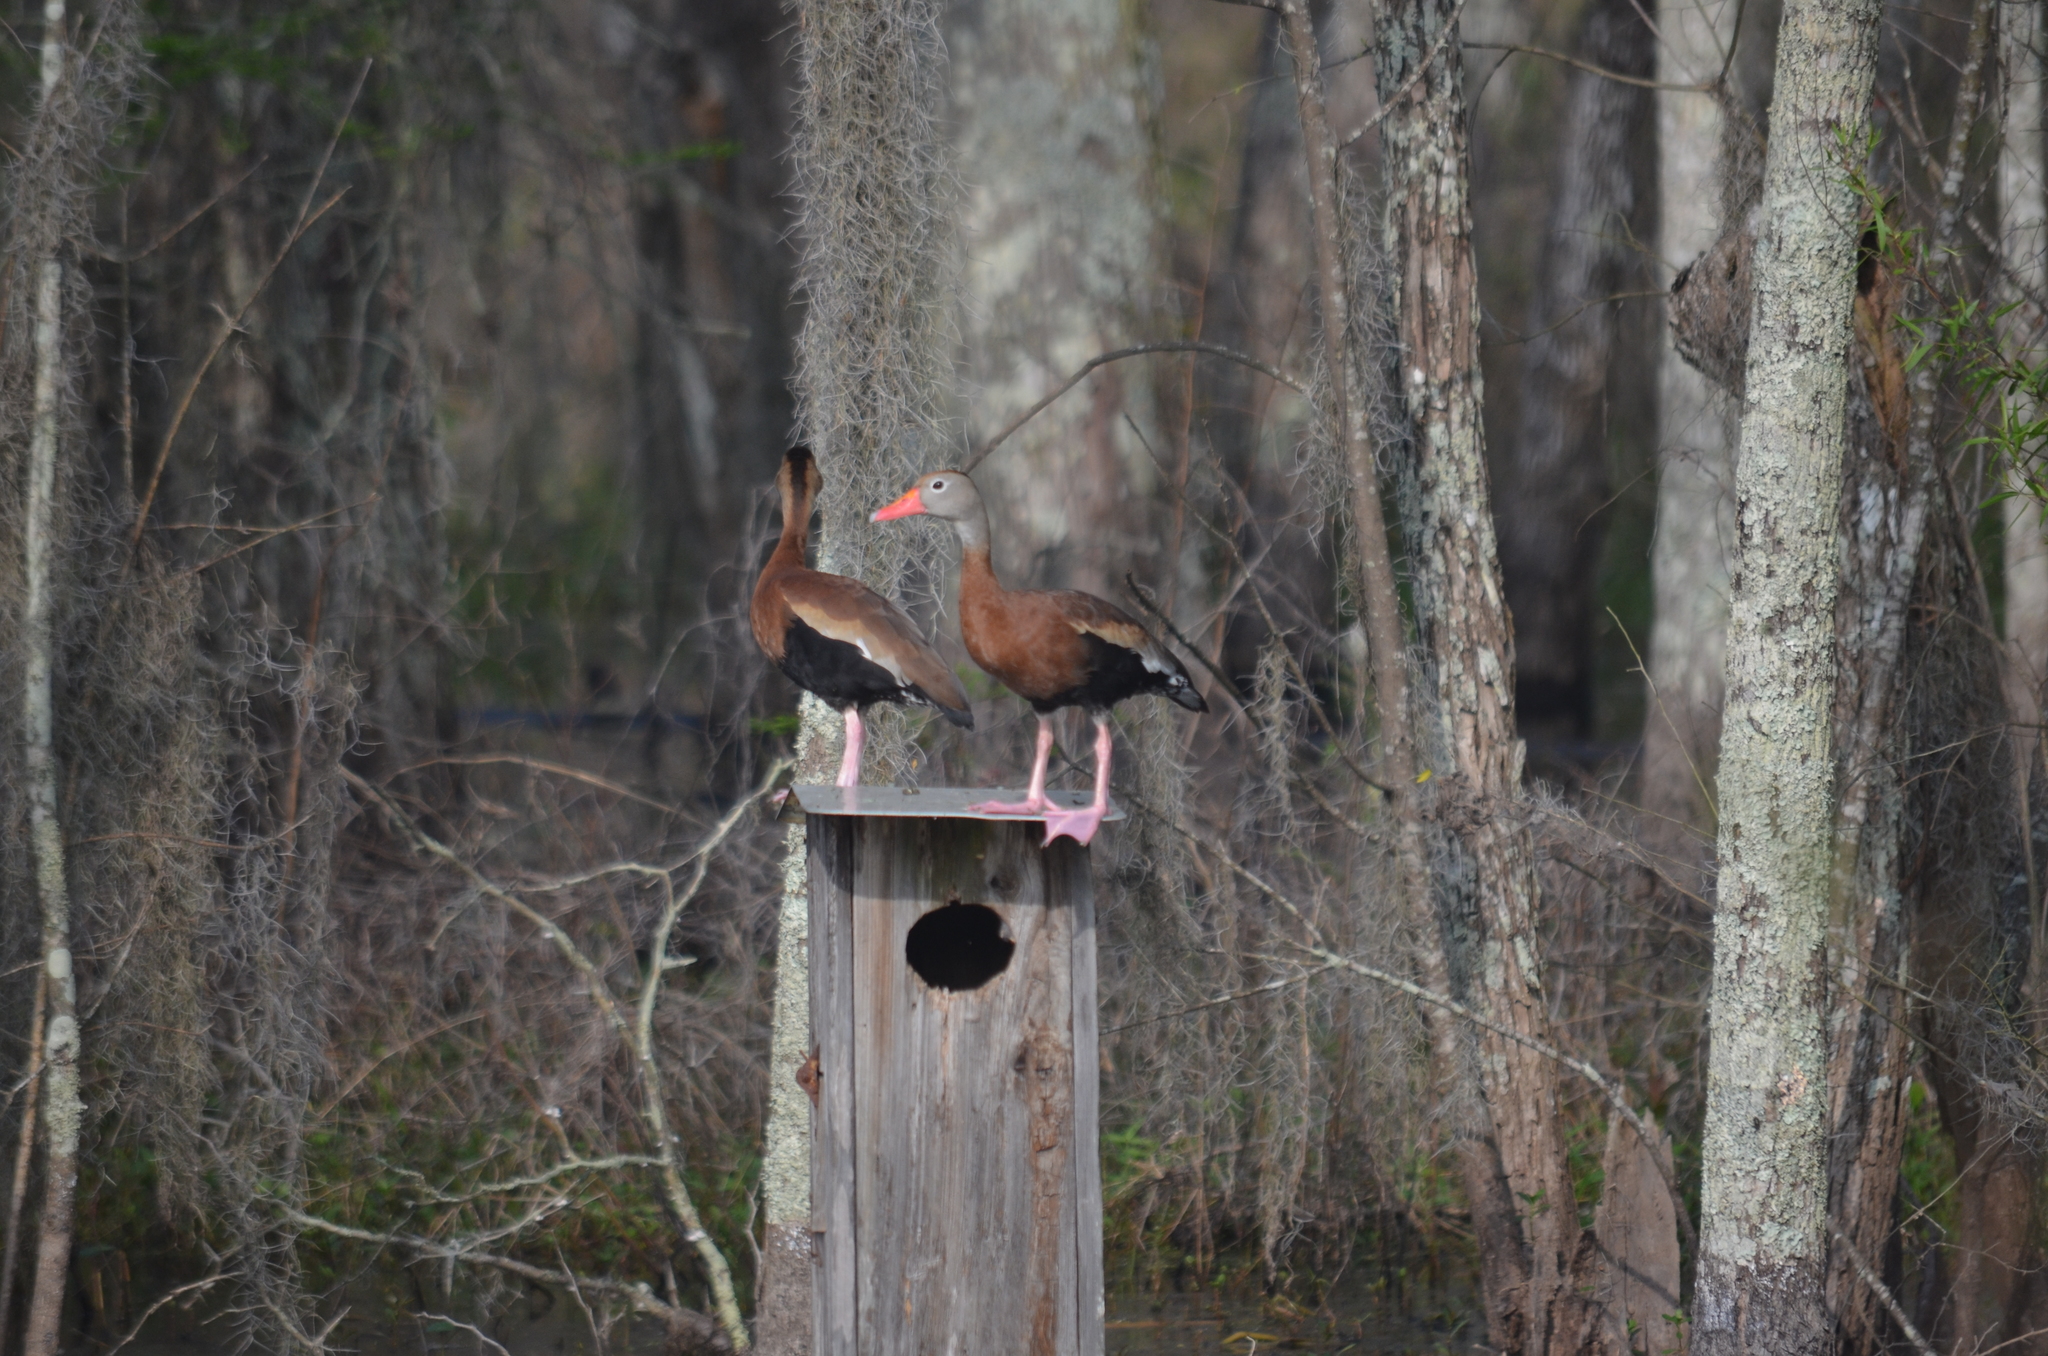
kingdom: Animalia
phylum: Chordata
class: Aves
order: Anseriformes
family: Anatidae
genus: Dendrocygna
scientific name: Dendrocygna autumnalis
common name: Black-bellied whistling duck
